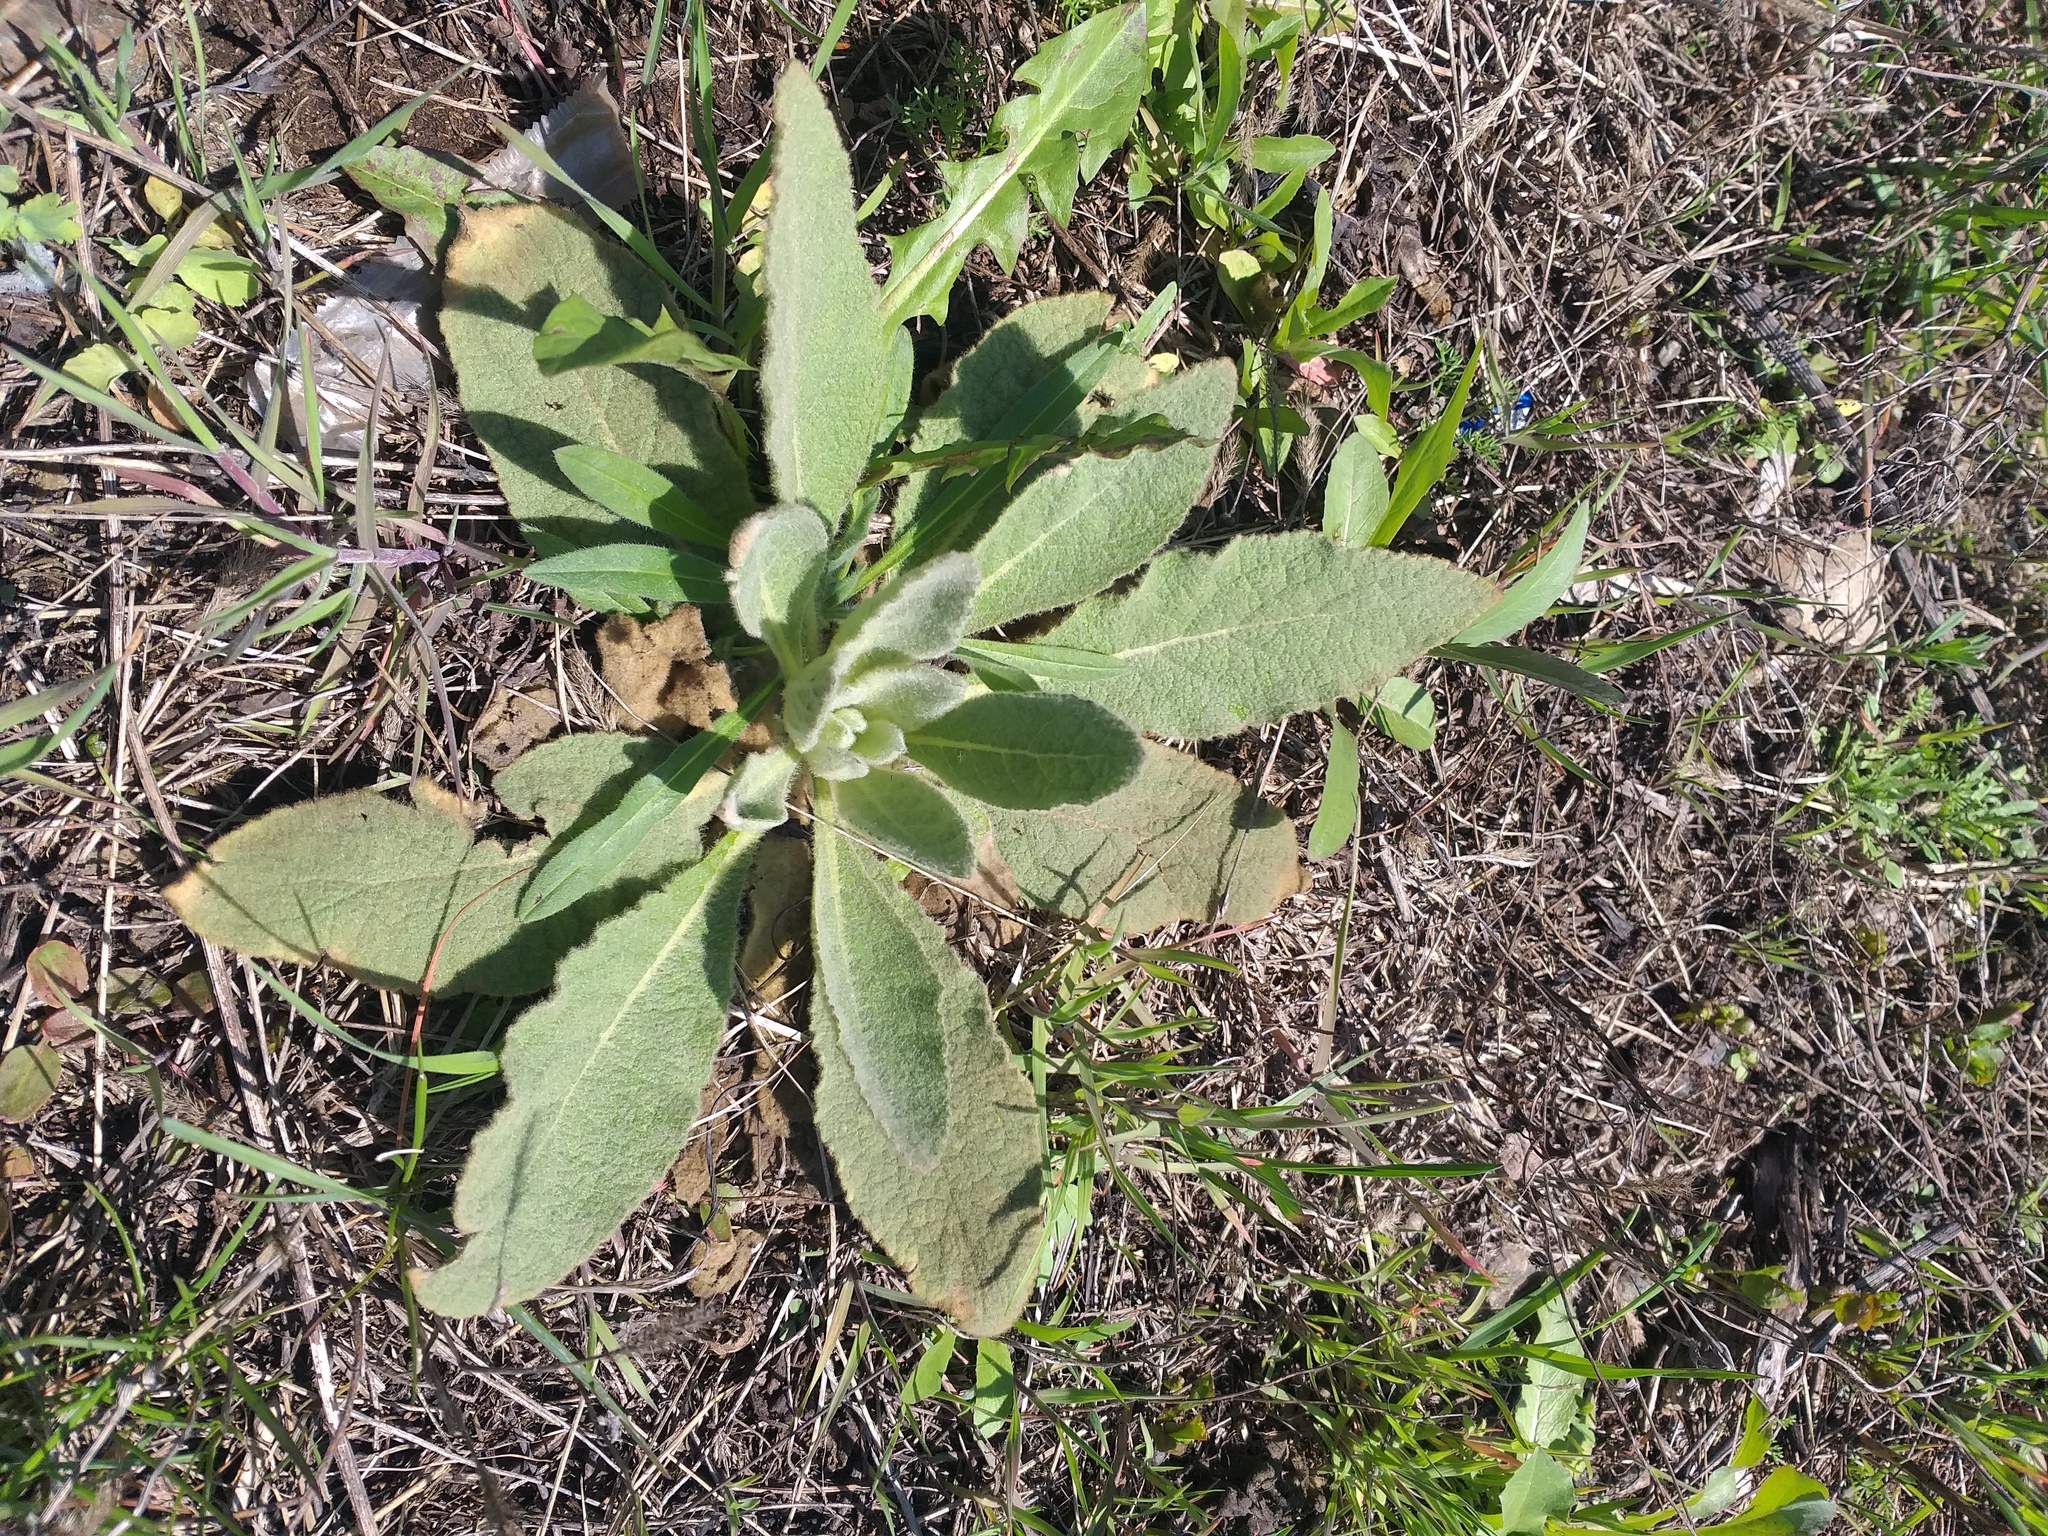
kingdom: Plantae
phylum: Tracheophyta
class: Magnoliopsida
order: Lamiales
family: Scrophulariaceae
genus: Verbascum
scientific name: Verbascum thapsus
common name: Common mullein
